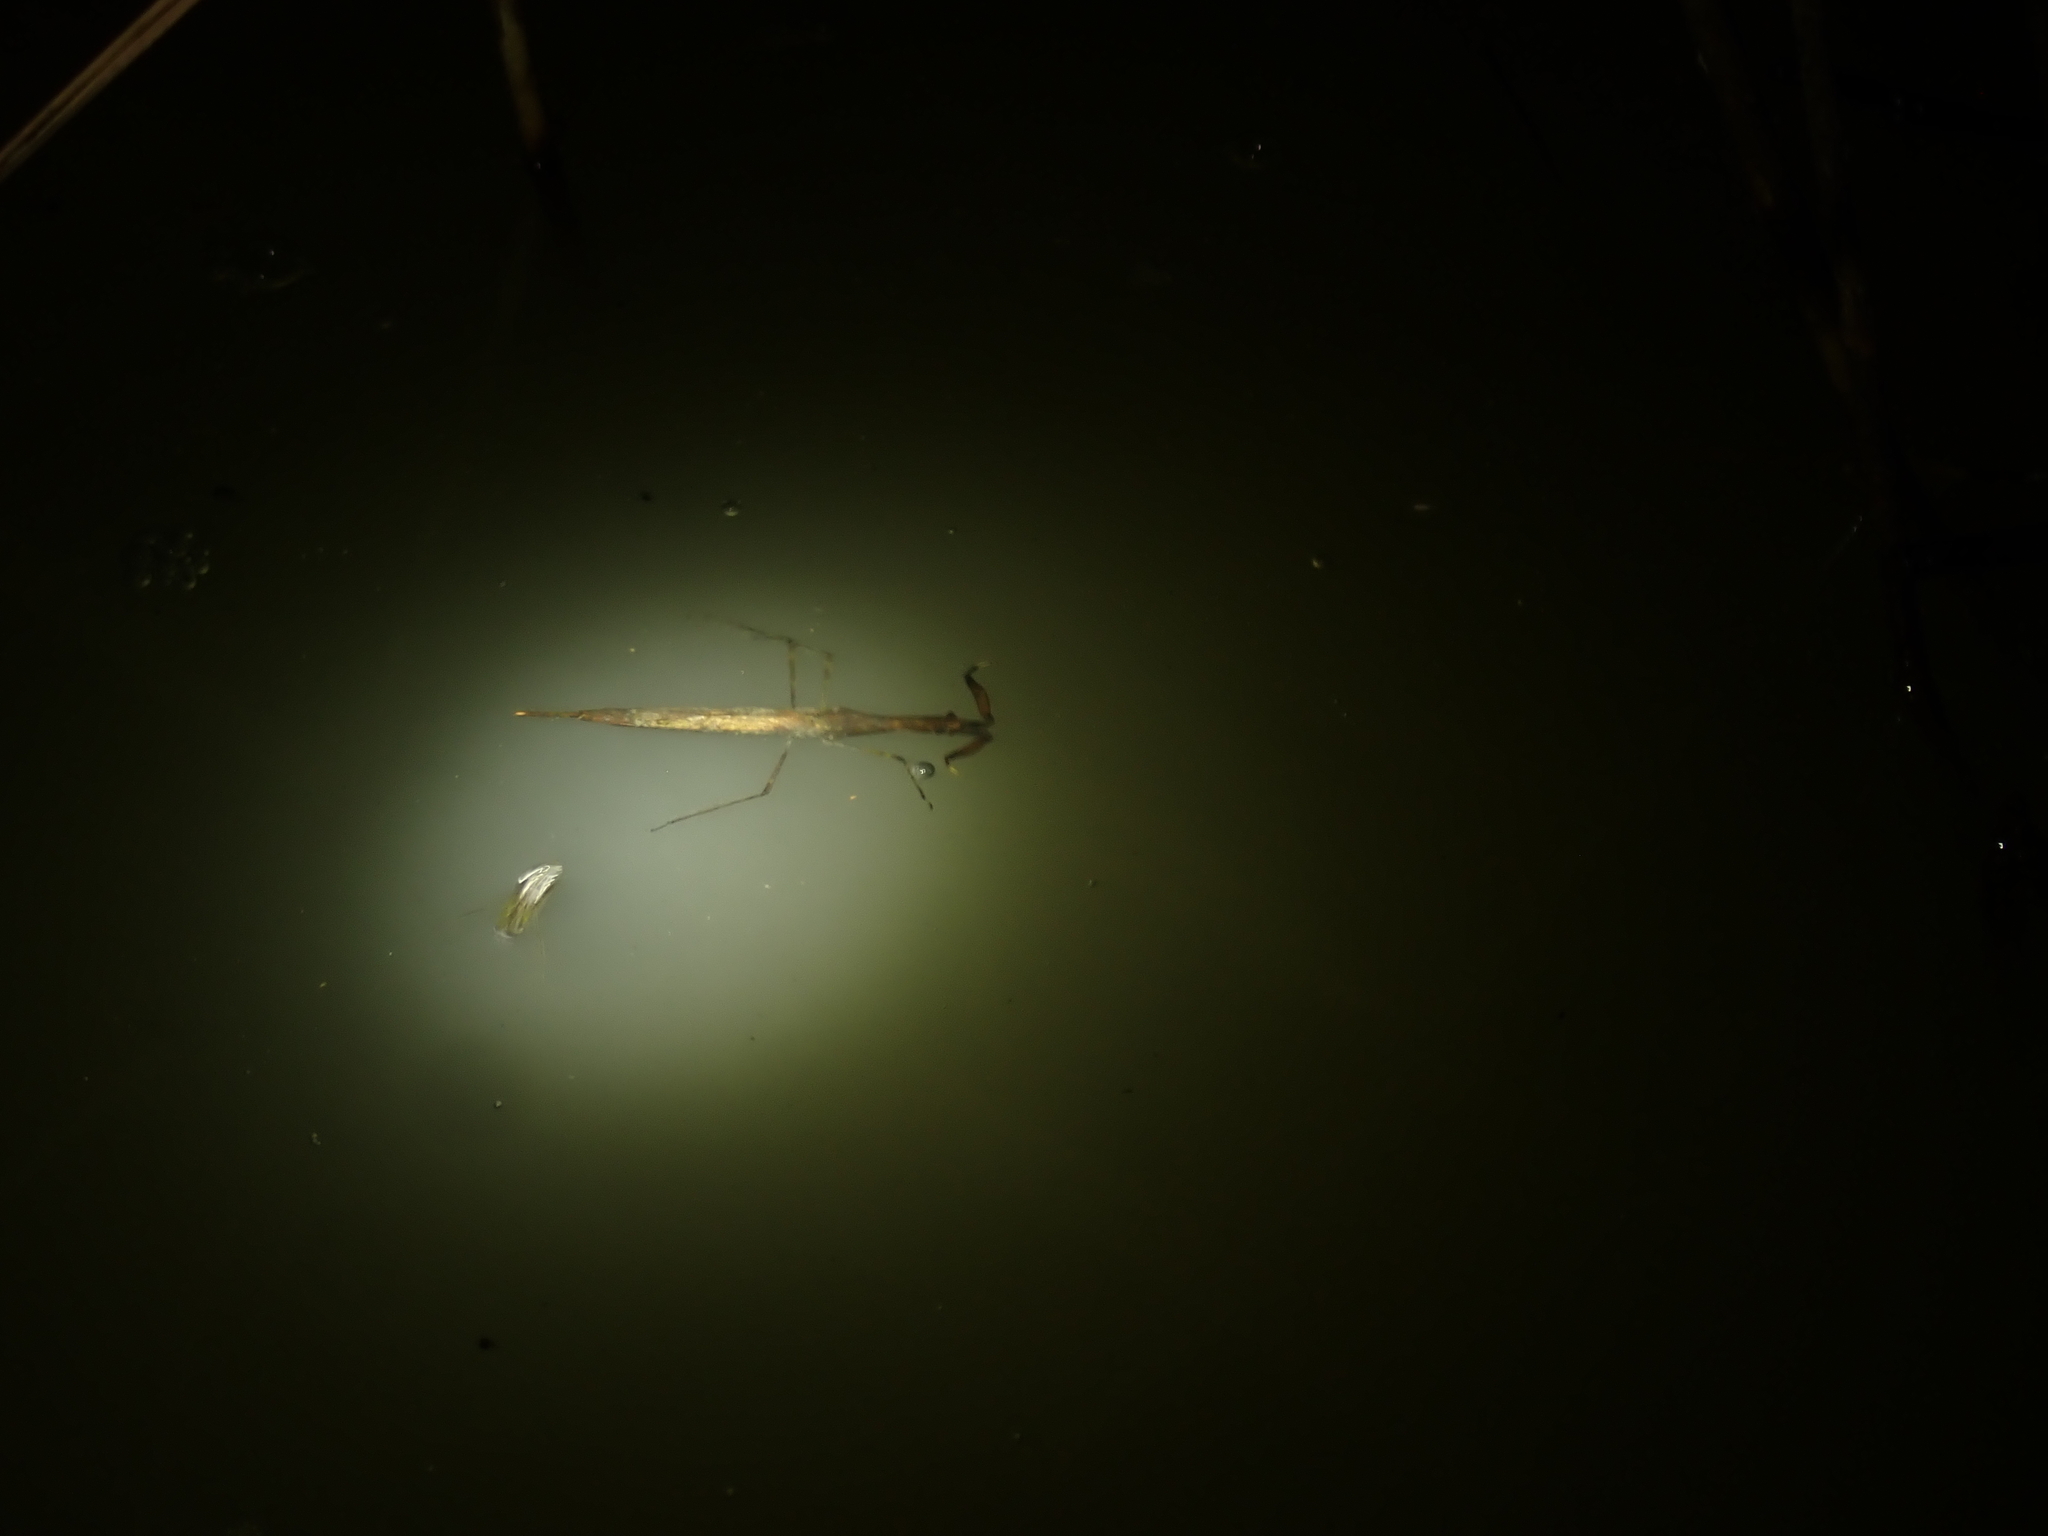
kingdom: Animalia
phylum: Arthropoda
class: Insecta
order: Hemiptera
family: Nepidae
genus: Cercotmetus
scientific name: Cercotmetus brevipes
